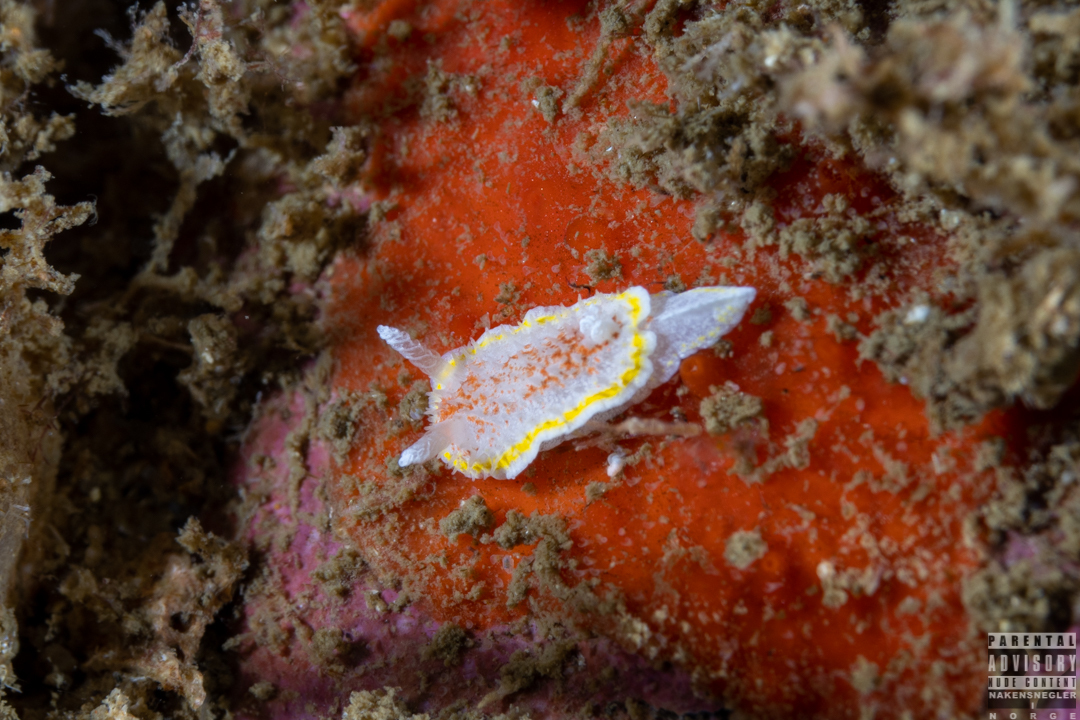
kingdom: Animalia
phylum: Mollusca
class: Gastropoda
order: Nudibranchia
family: Calycidorididae
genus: Diaphorodoris
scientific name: Diaphorodoris luteocincta
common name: Fried egg nudibranch
